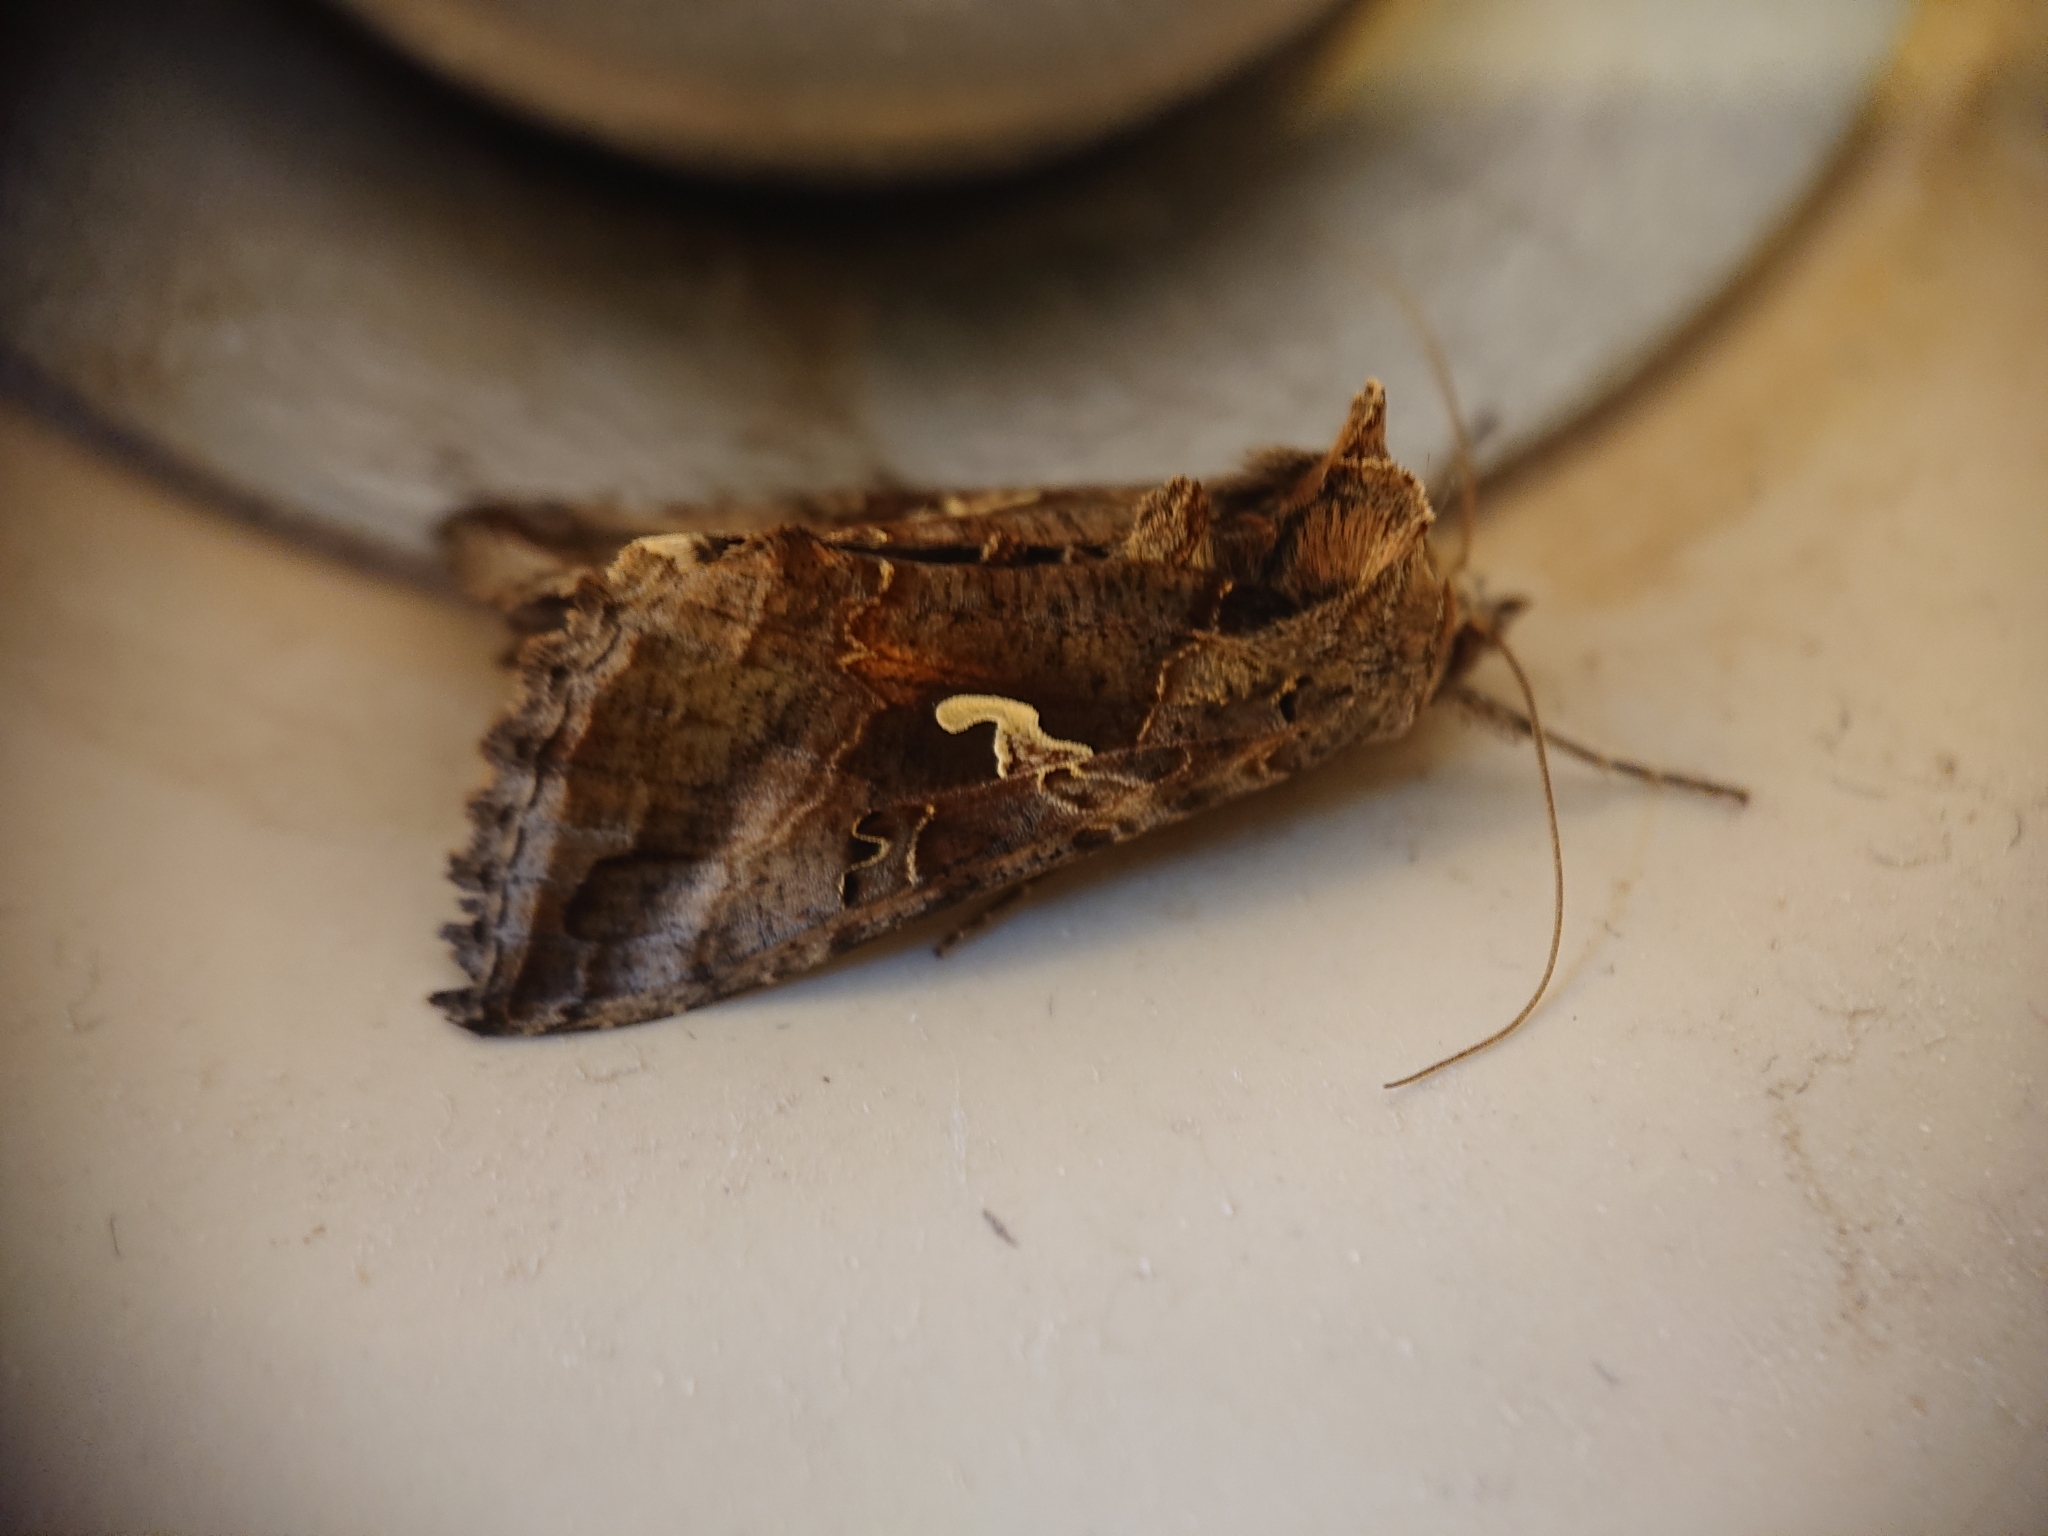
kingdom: Animalia
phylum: Arthropoda
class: Insecta
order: Lepidoptera
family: Noctuidae
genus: Autographa
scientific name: Autographa gamma
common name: Silver y
